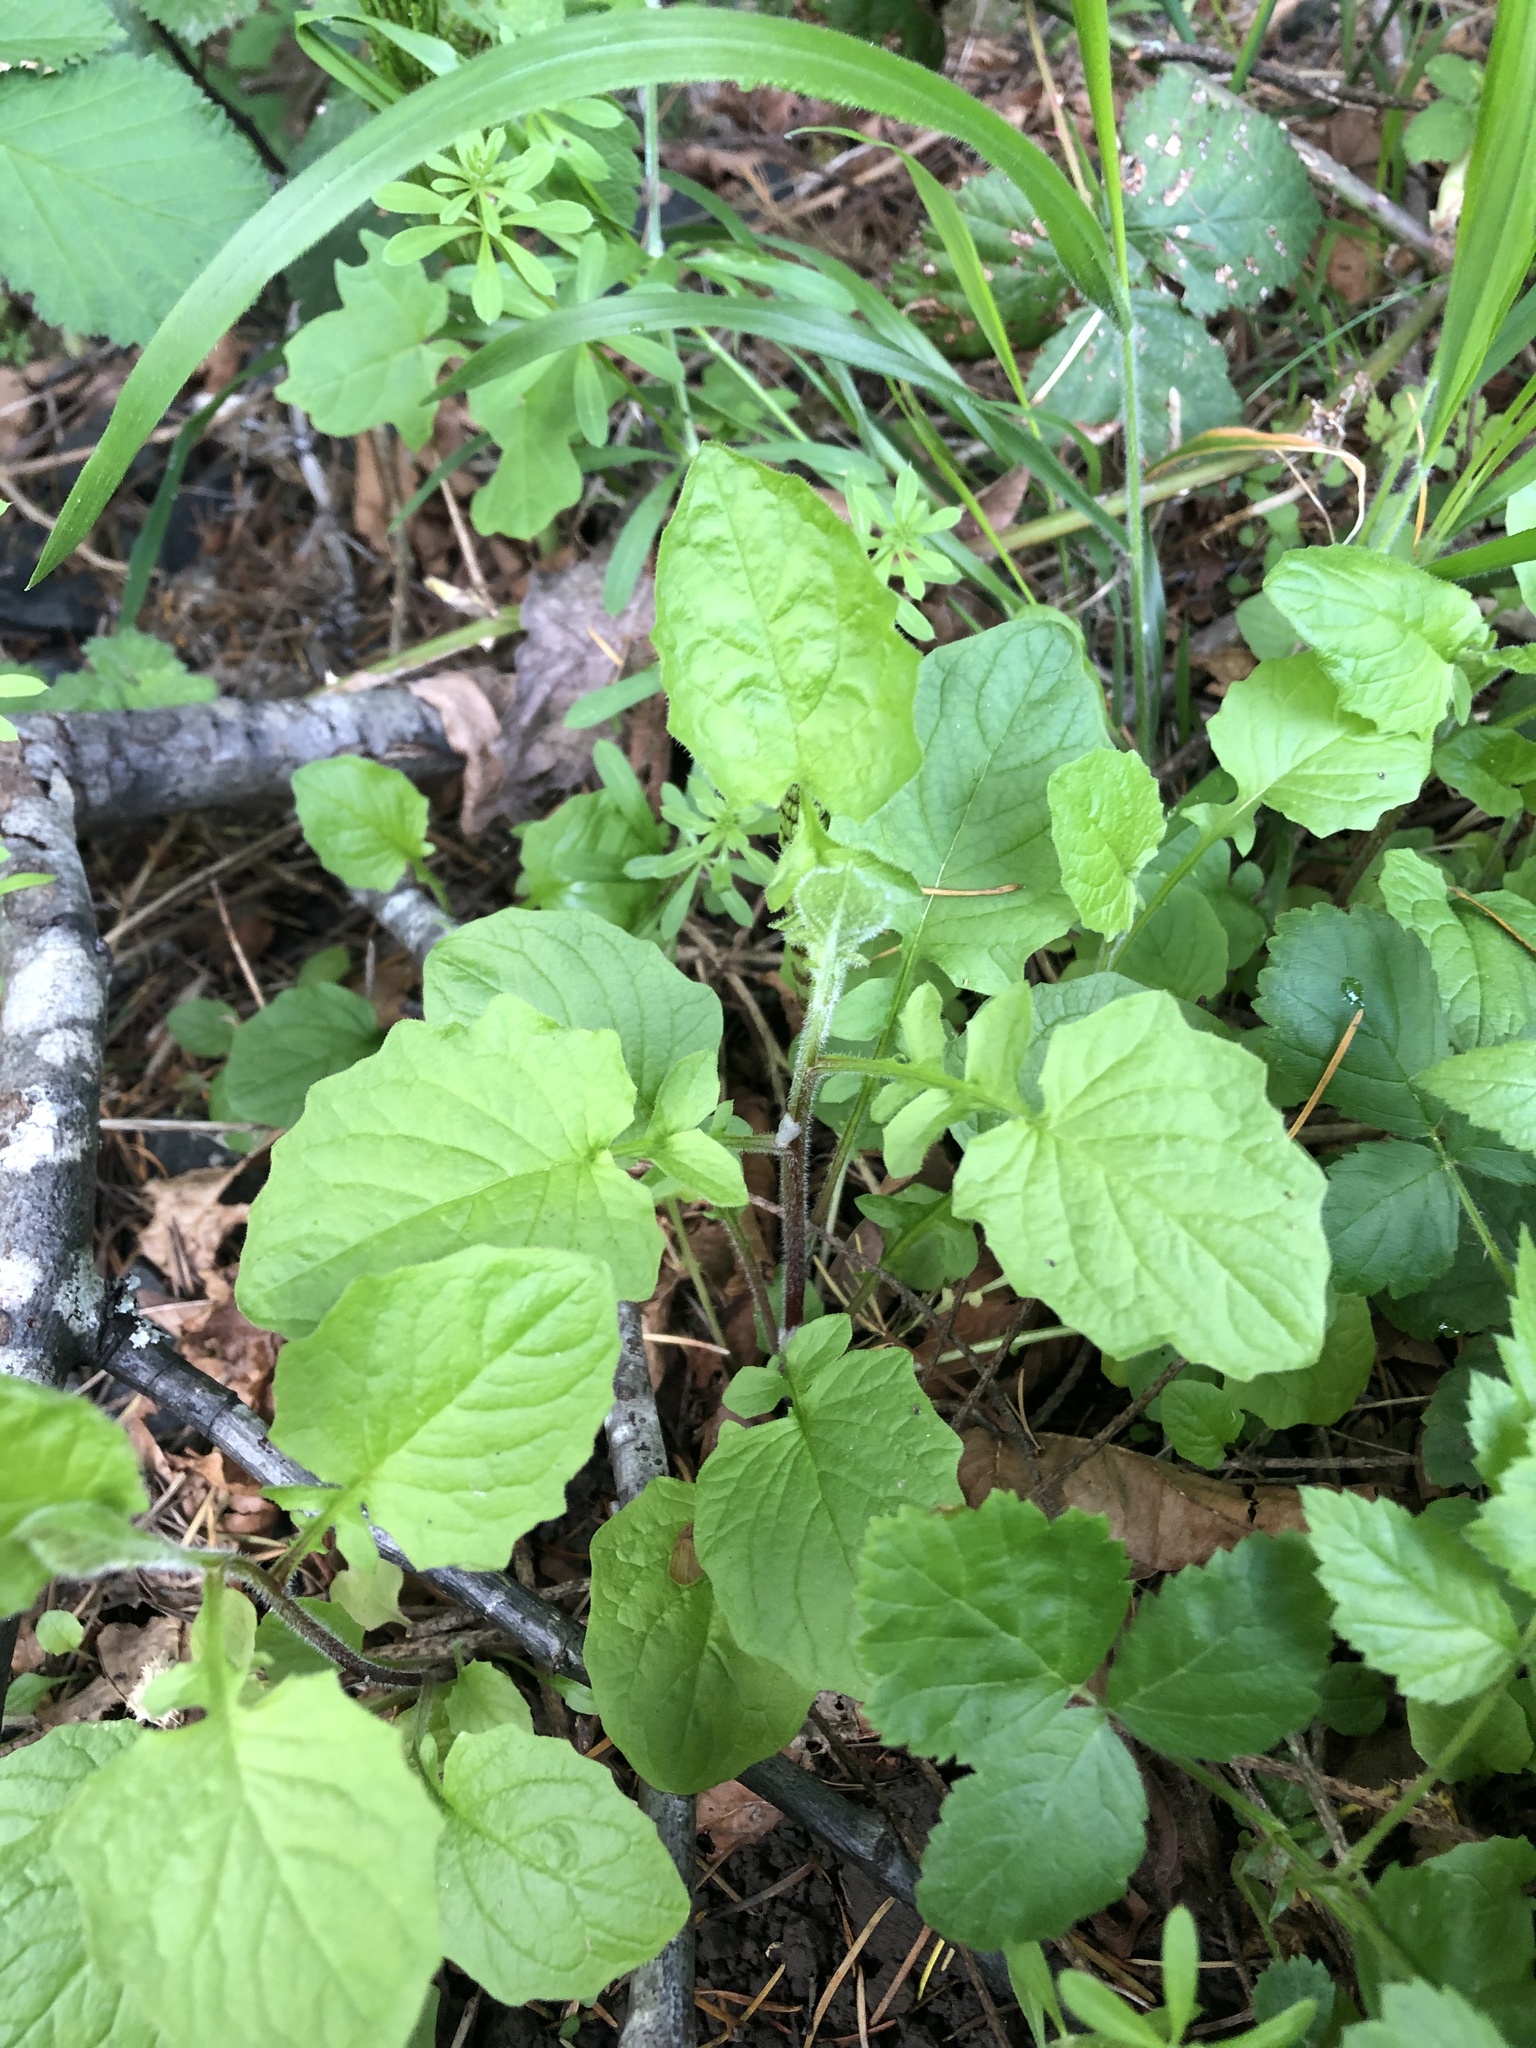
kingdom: Plantae
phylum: Tracheophyta
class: Magnoliopsida
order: Asterales
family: Asteraceae
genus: Lapsana
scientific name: Lapsana communis
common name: Nipplewort
